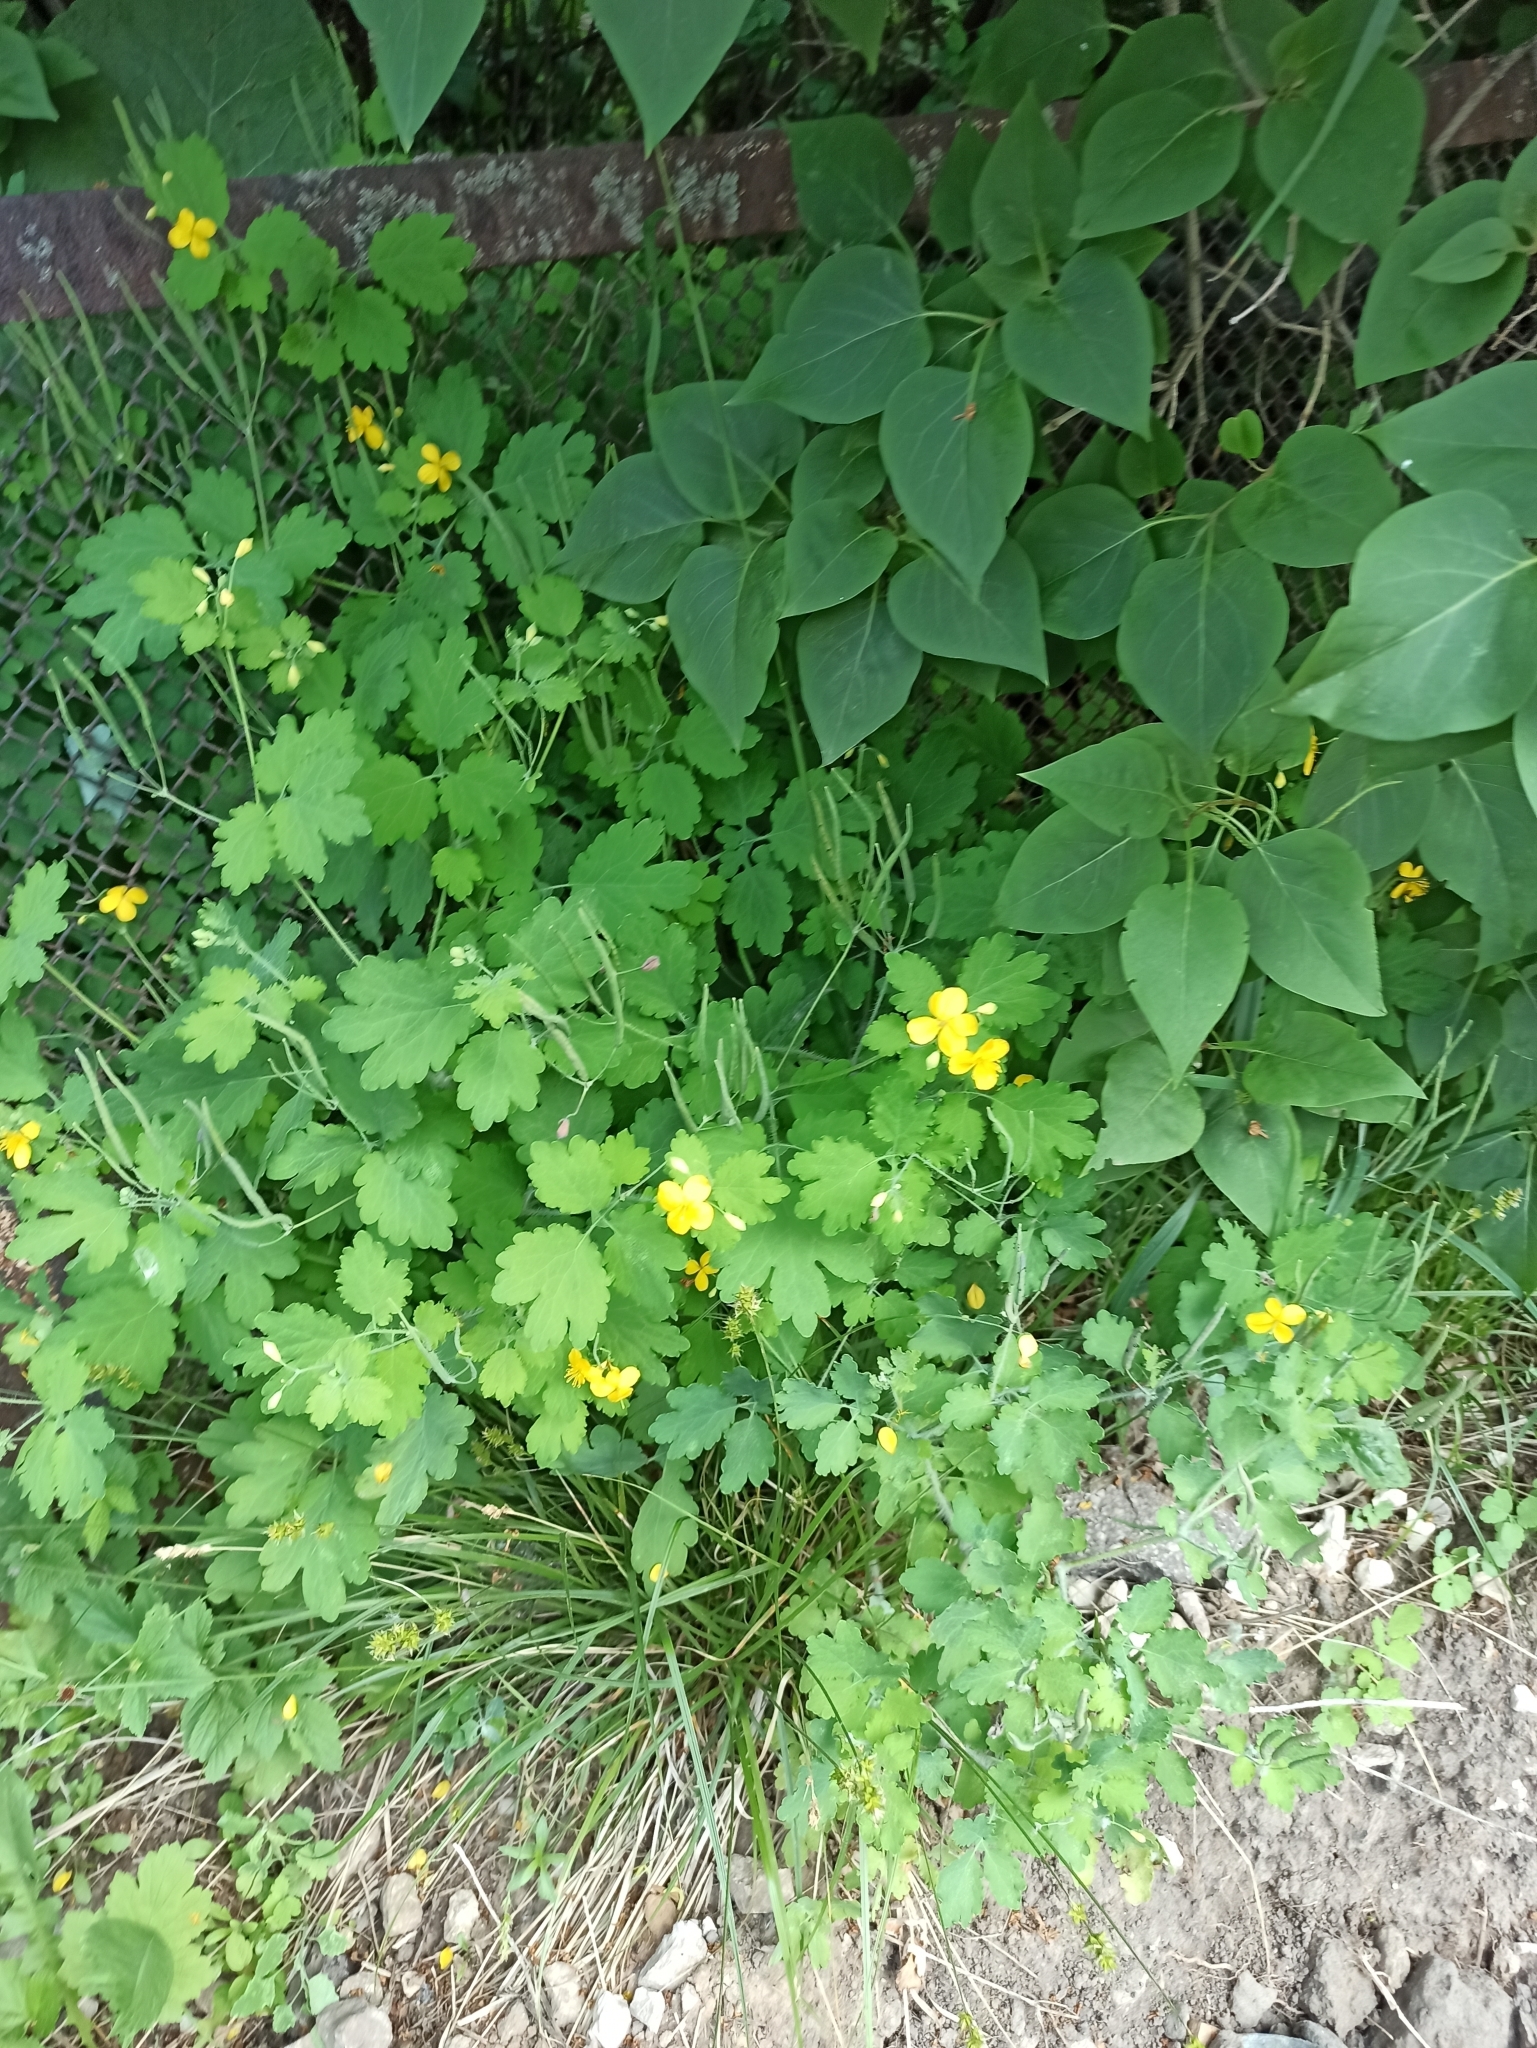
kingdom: Plantae
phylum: Tracheophyta
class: Magnoliopsida
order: Ranunculales
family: Papaveraceae
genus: Chelidonium
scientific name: Chelidonium majus
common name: Greater celandine
